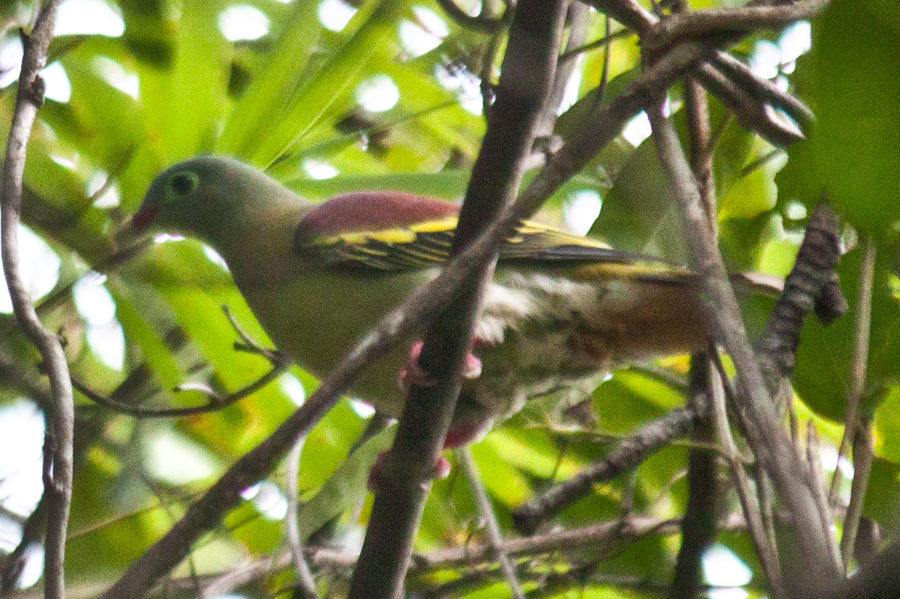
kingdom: Animalia
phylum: Chordata
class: Aves
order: Columbiformes
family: Columbidae
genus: Treron
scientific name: Treron curvirostra
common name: Thick-billed green pigeon
